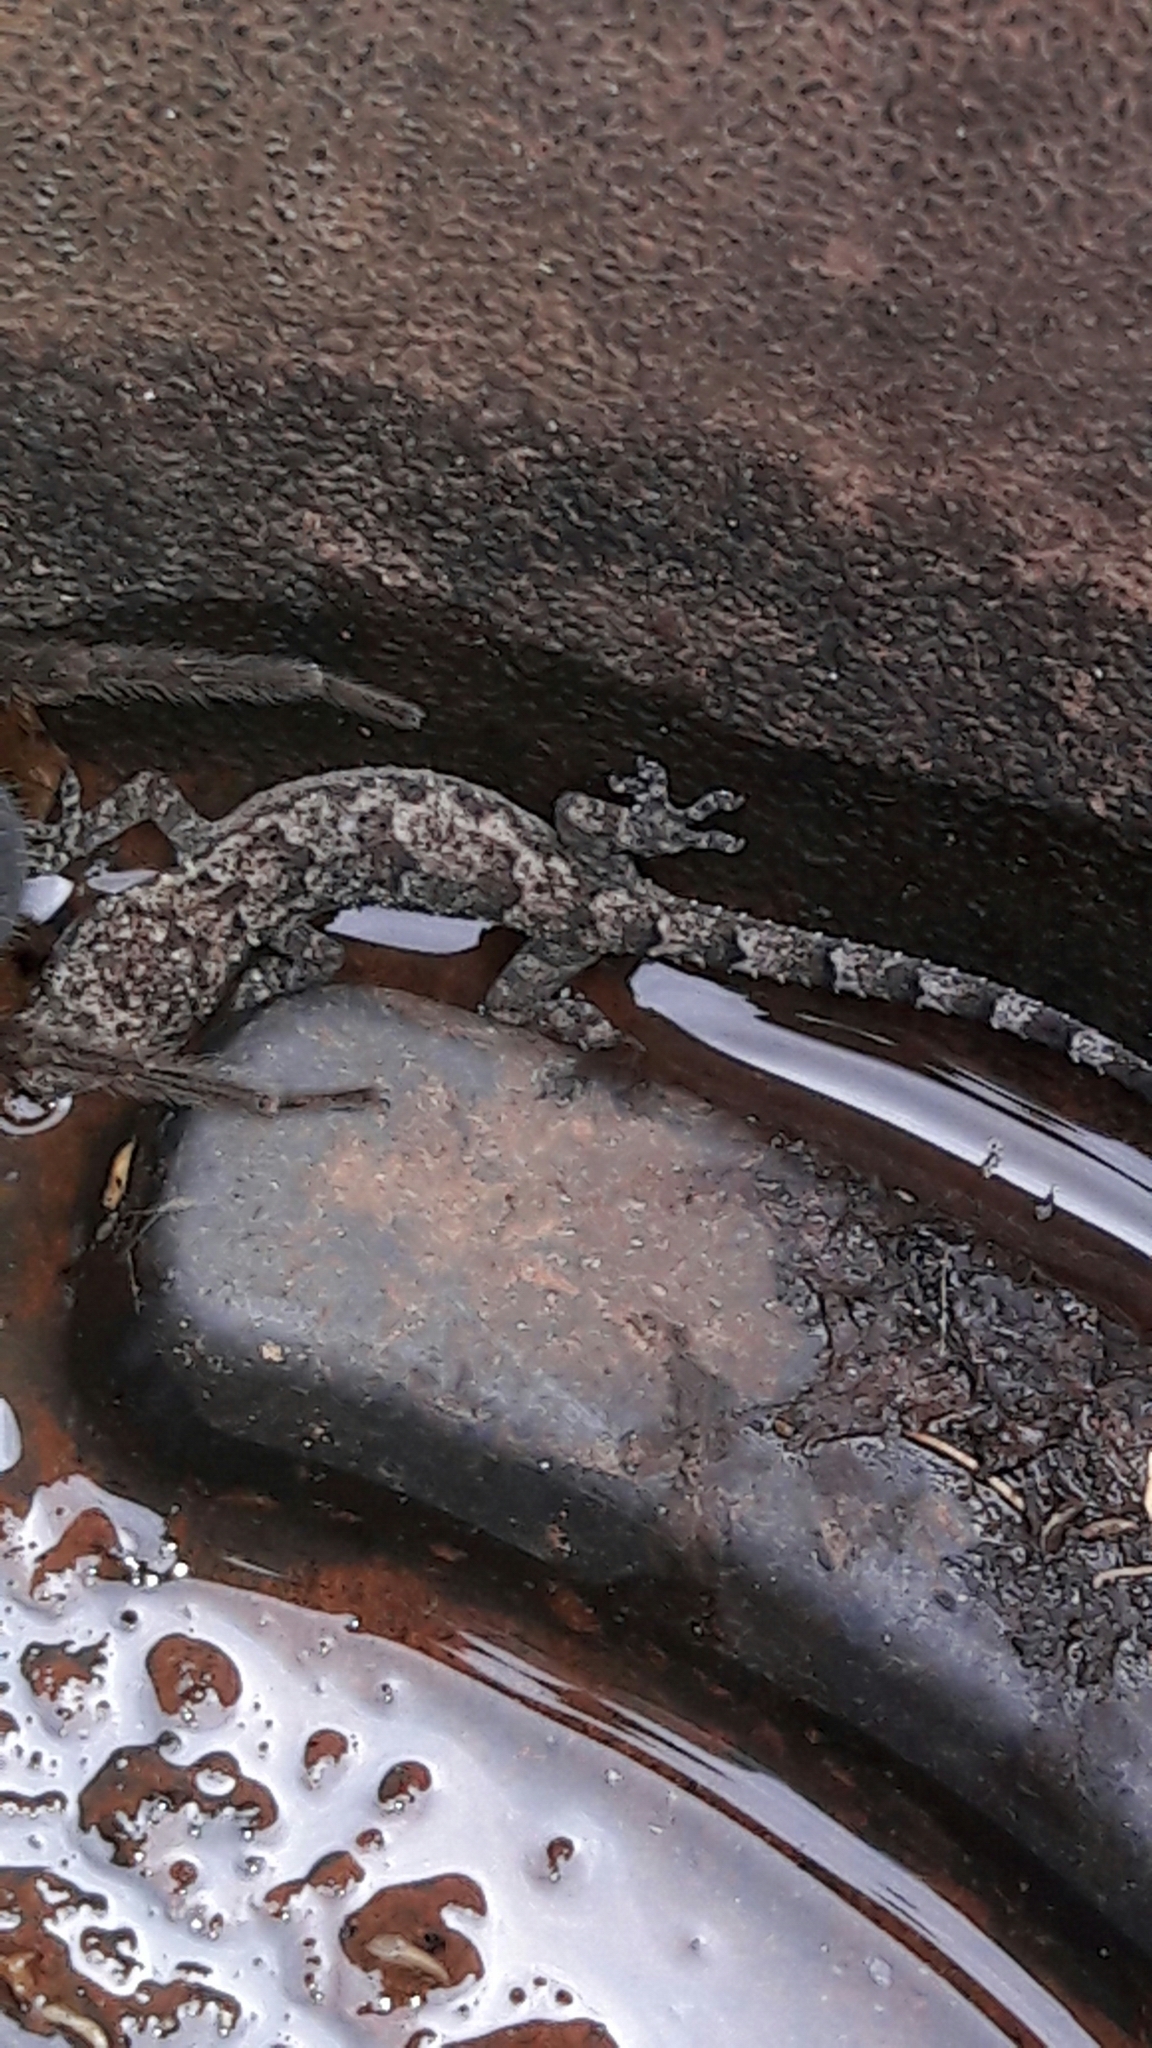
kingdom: Animalia
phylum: Chordata
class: Squamata
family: Gekkonidae
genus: Hemidactylus
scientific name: Hemidactylus mabouia
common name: House gecko
